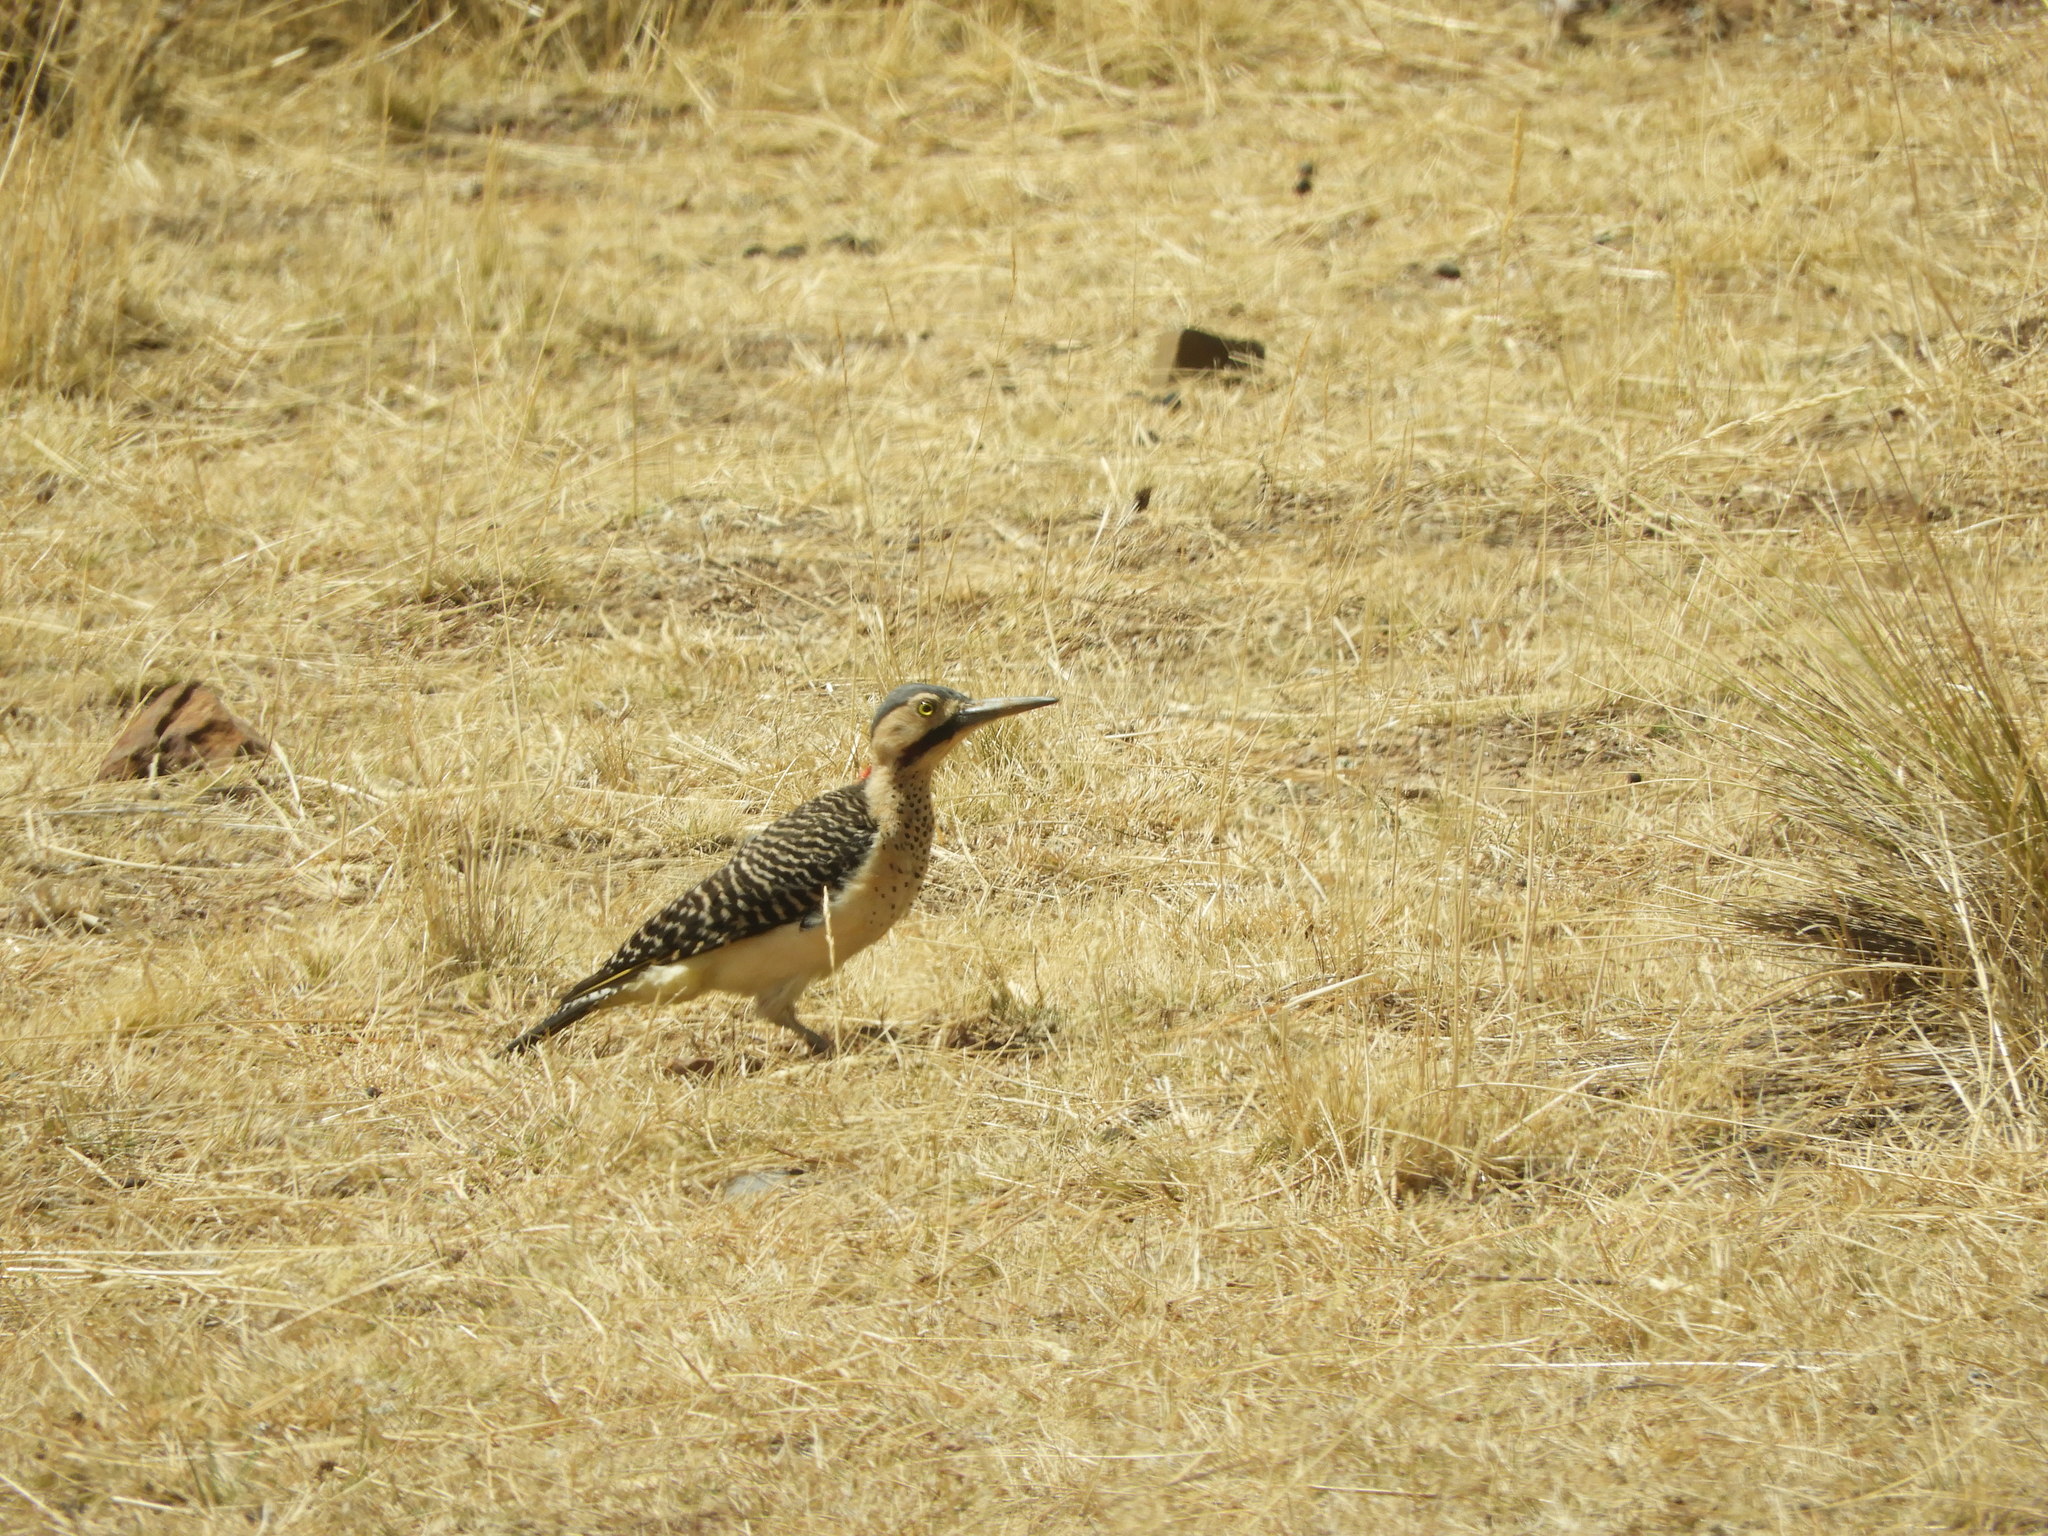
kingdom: Animalia
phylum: Chordata
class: Aves
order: Piciformes
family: Picidae
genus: Colaptes
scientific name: Colaptes rupicola
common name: Andean flicker
